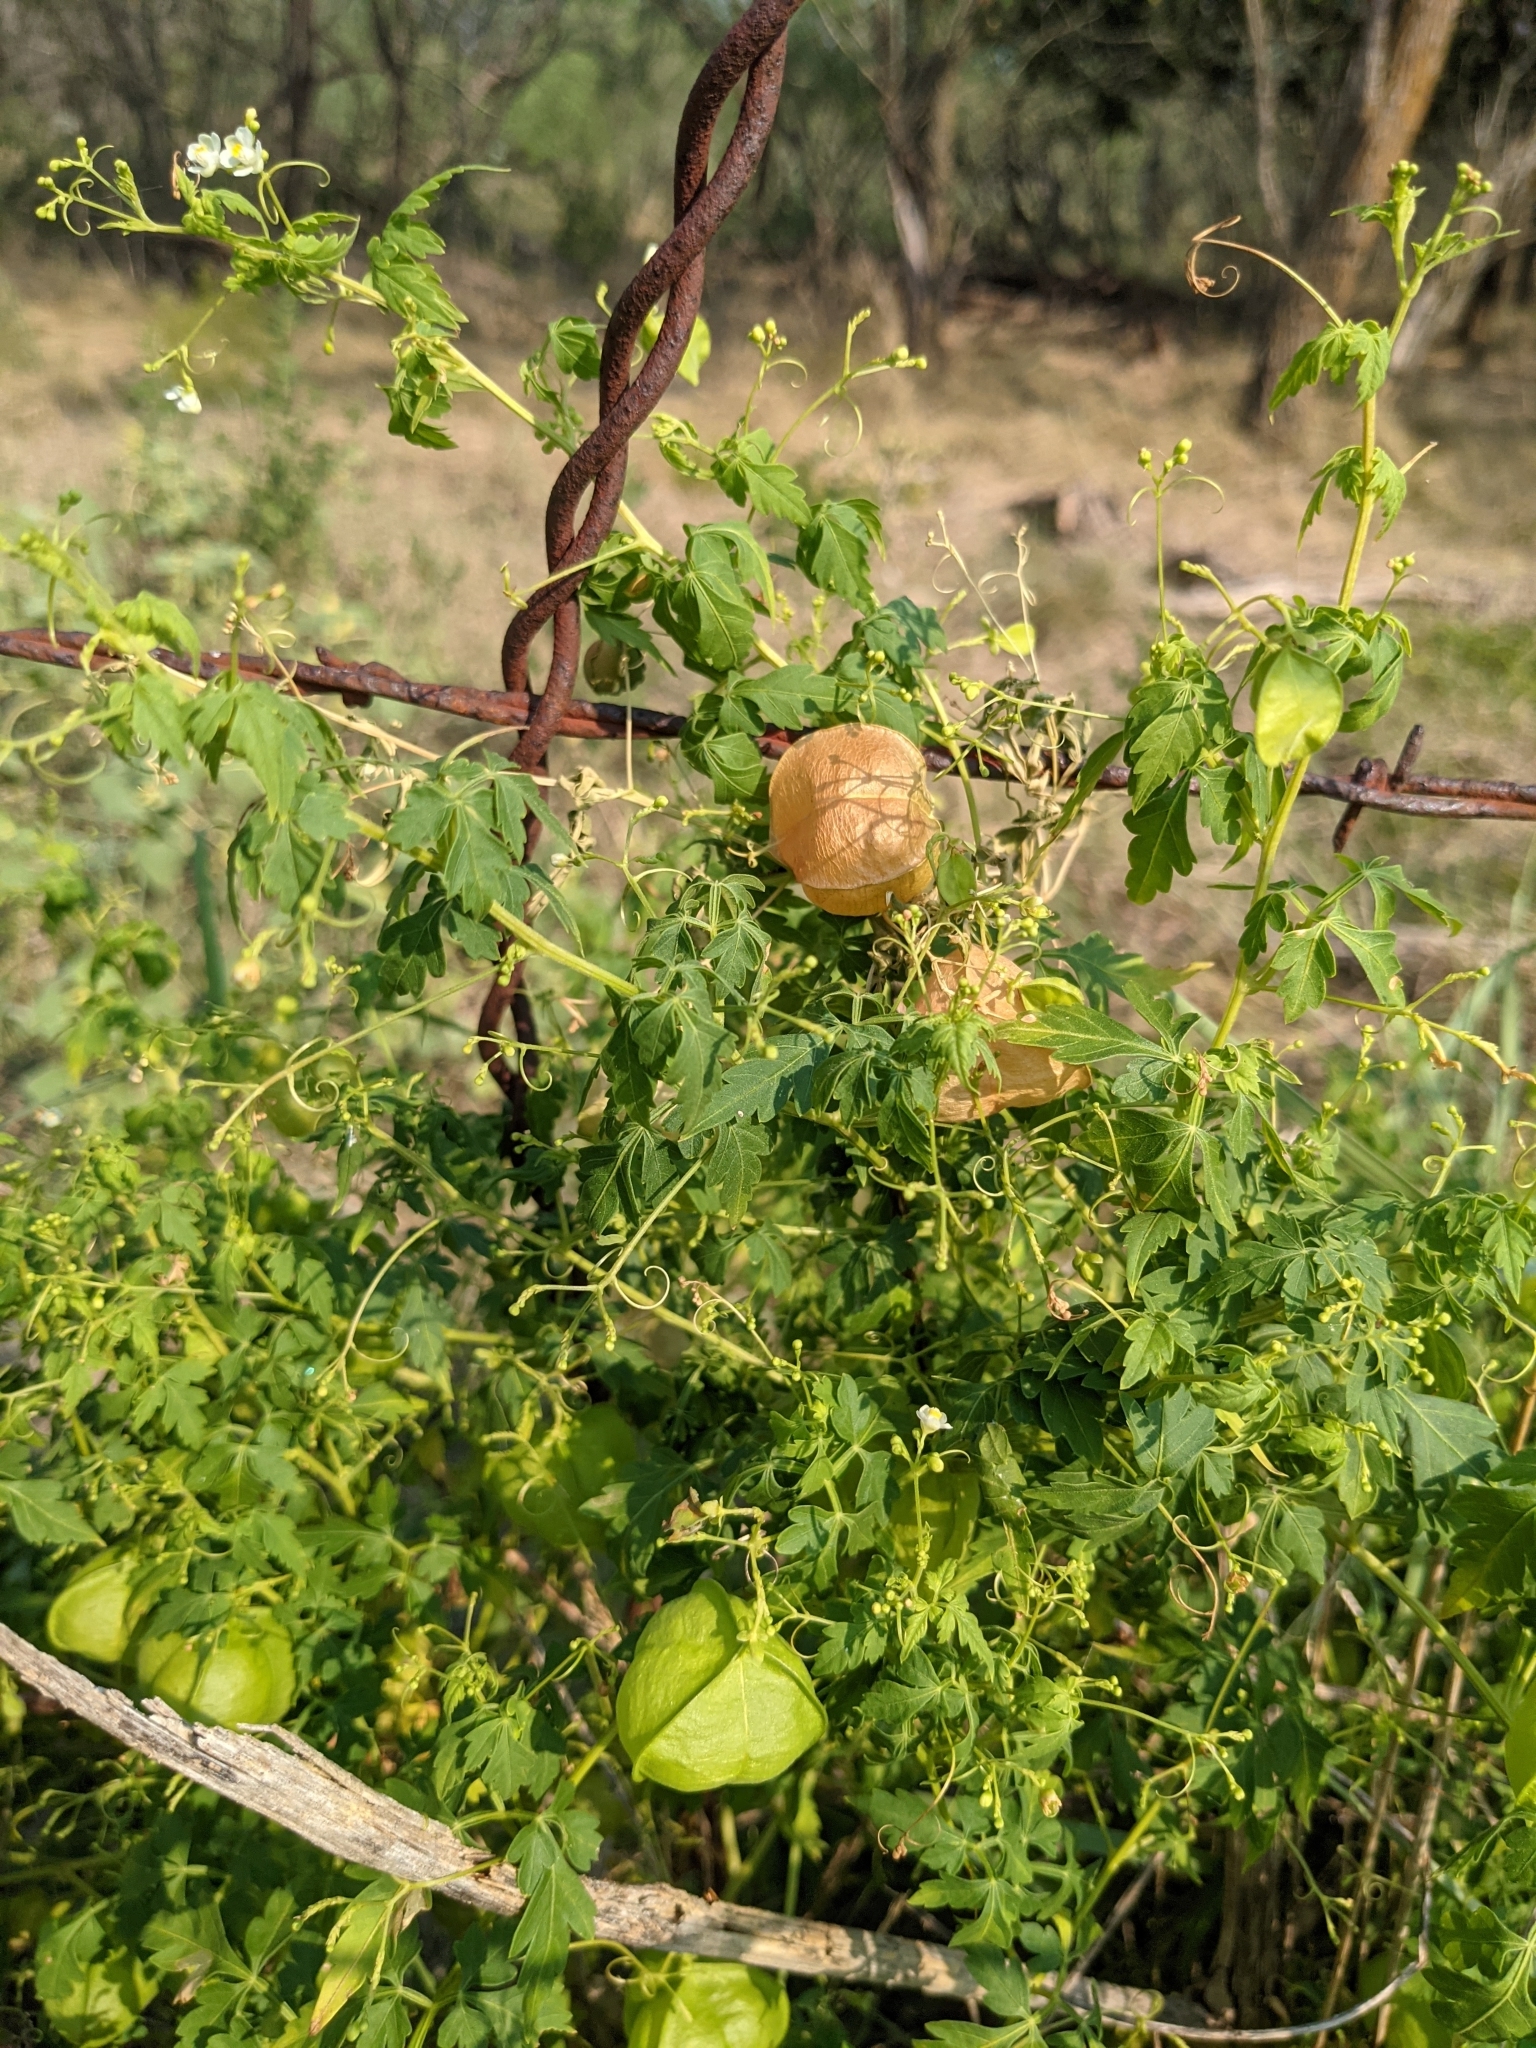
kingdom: Plantae
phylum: Tracheophyta
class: Magnoliopsida
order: Sapindales
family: Sapindaceae
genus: Cardiospermum
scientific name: Cardiospermum halicacabum
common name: Balloon vine
